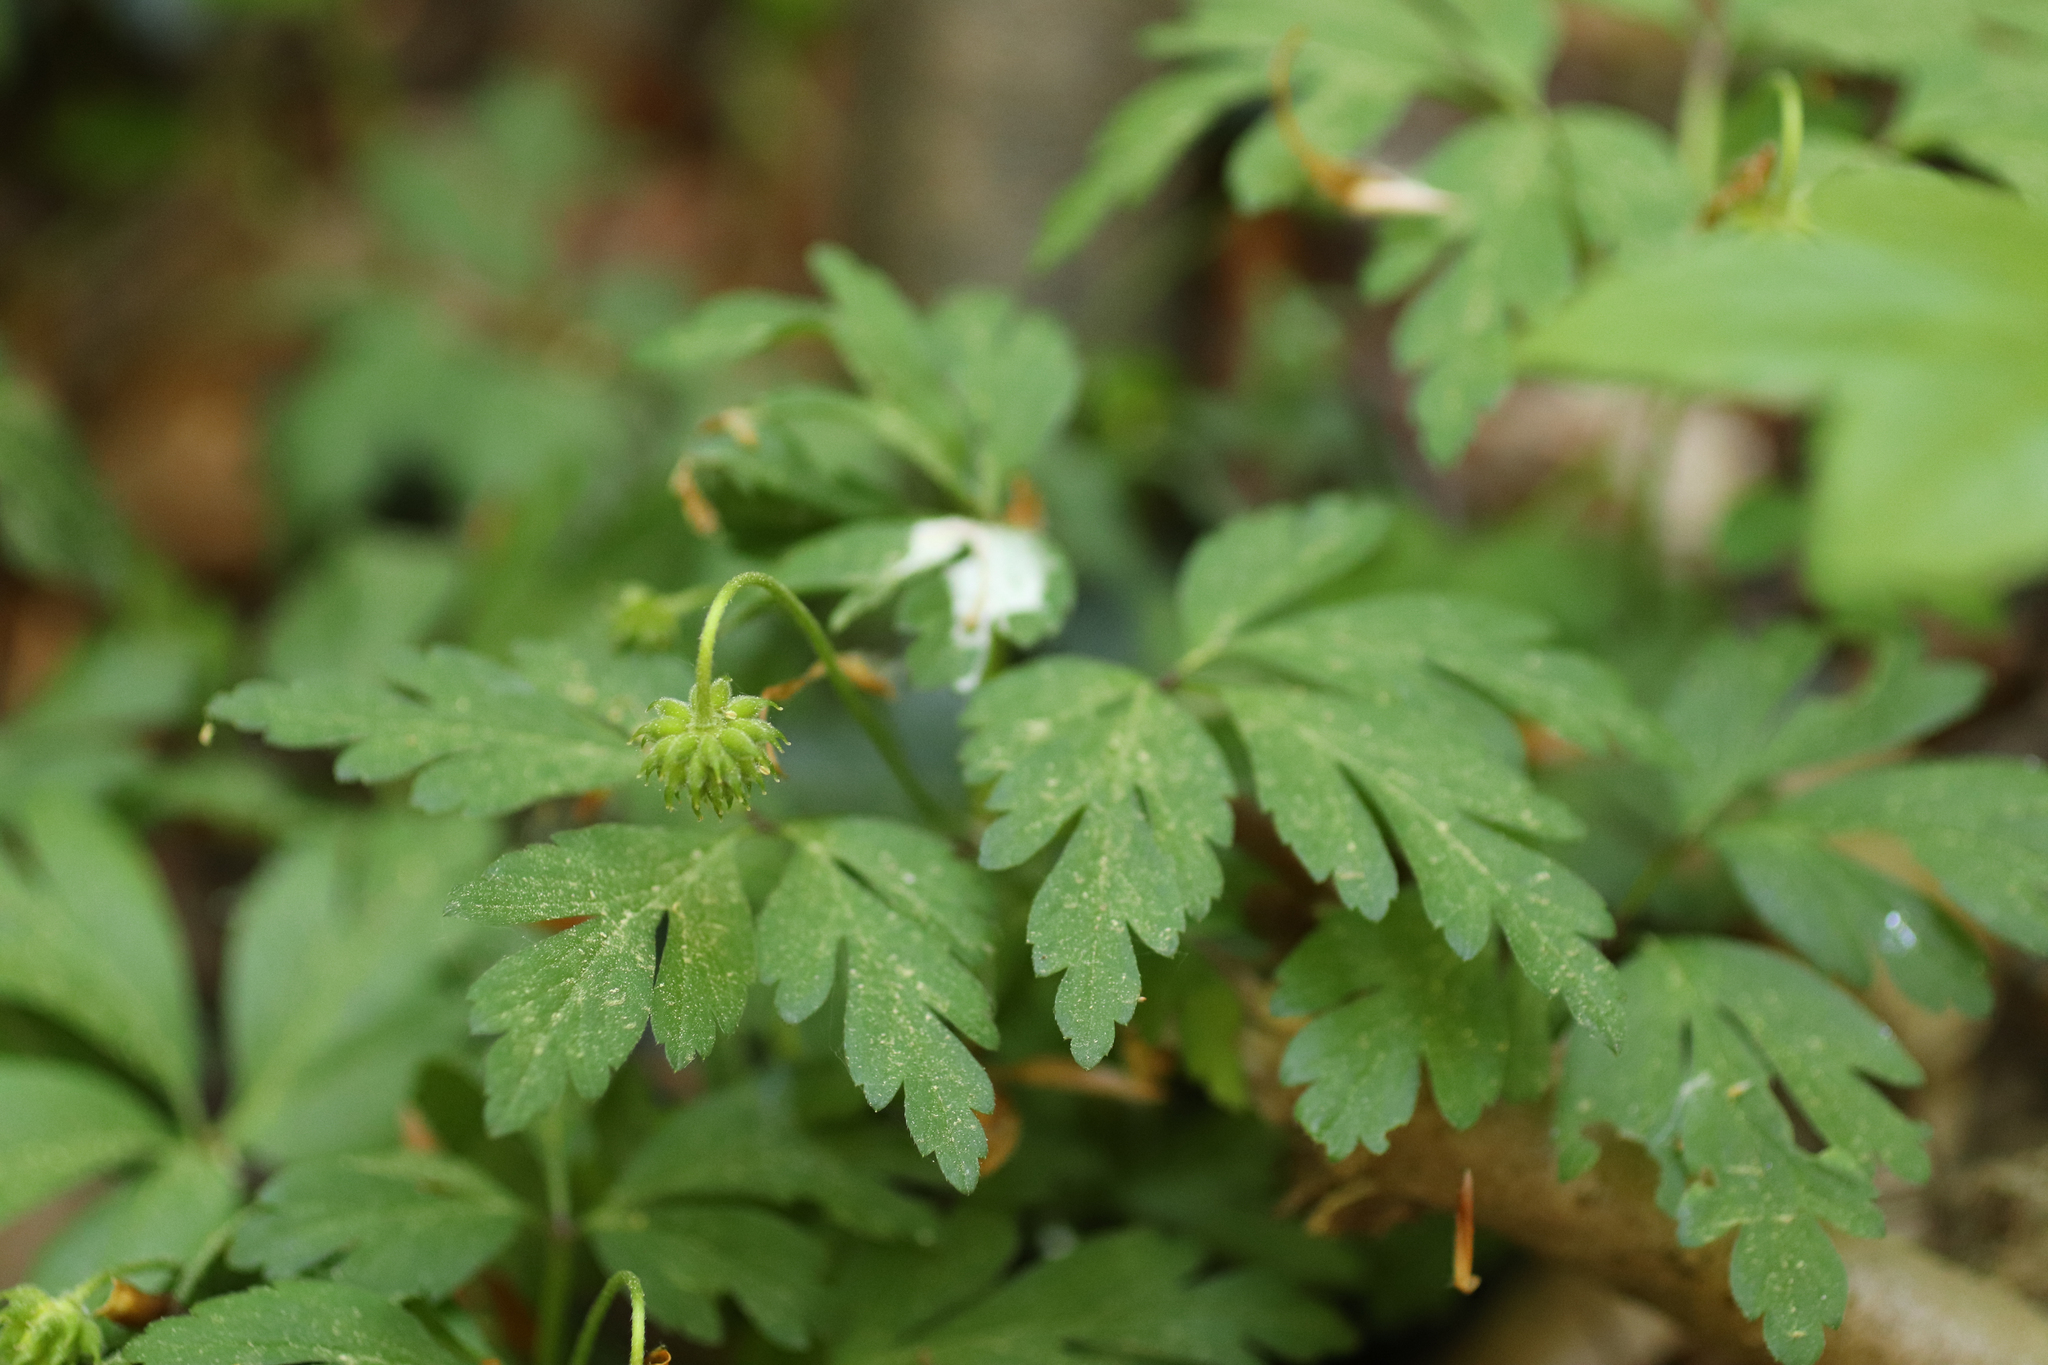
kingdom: Plantae
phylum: Tracheophyta
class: Magnoliopsida
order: Ranunculales
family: Ranunculaceae
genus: Anemone
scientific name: Anemone nemorosa
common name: Wood anemone
